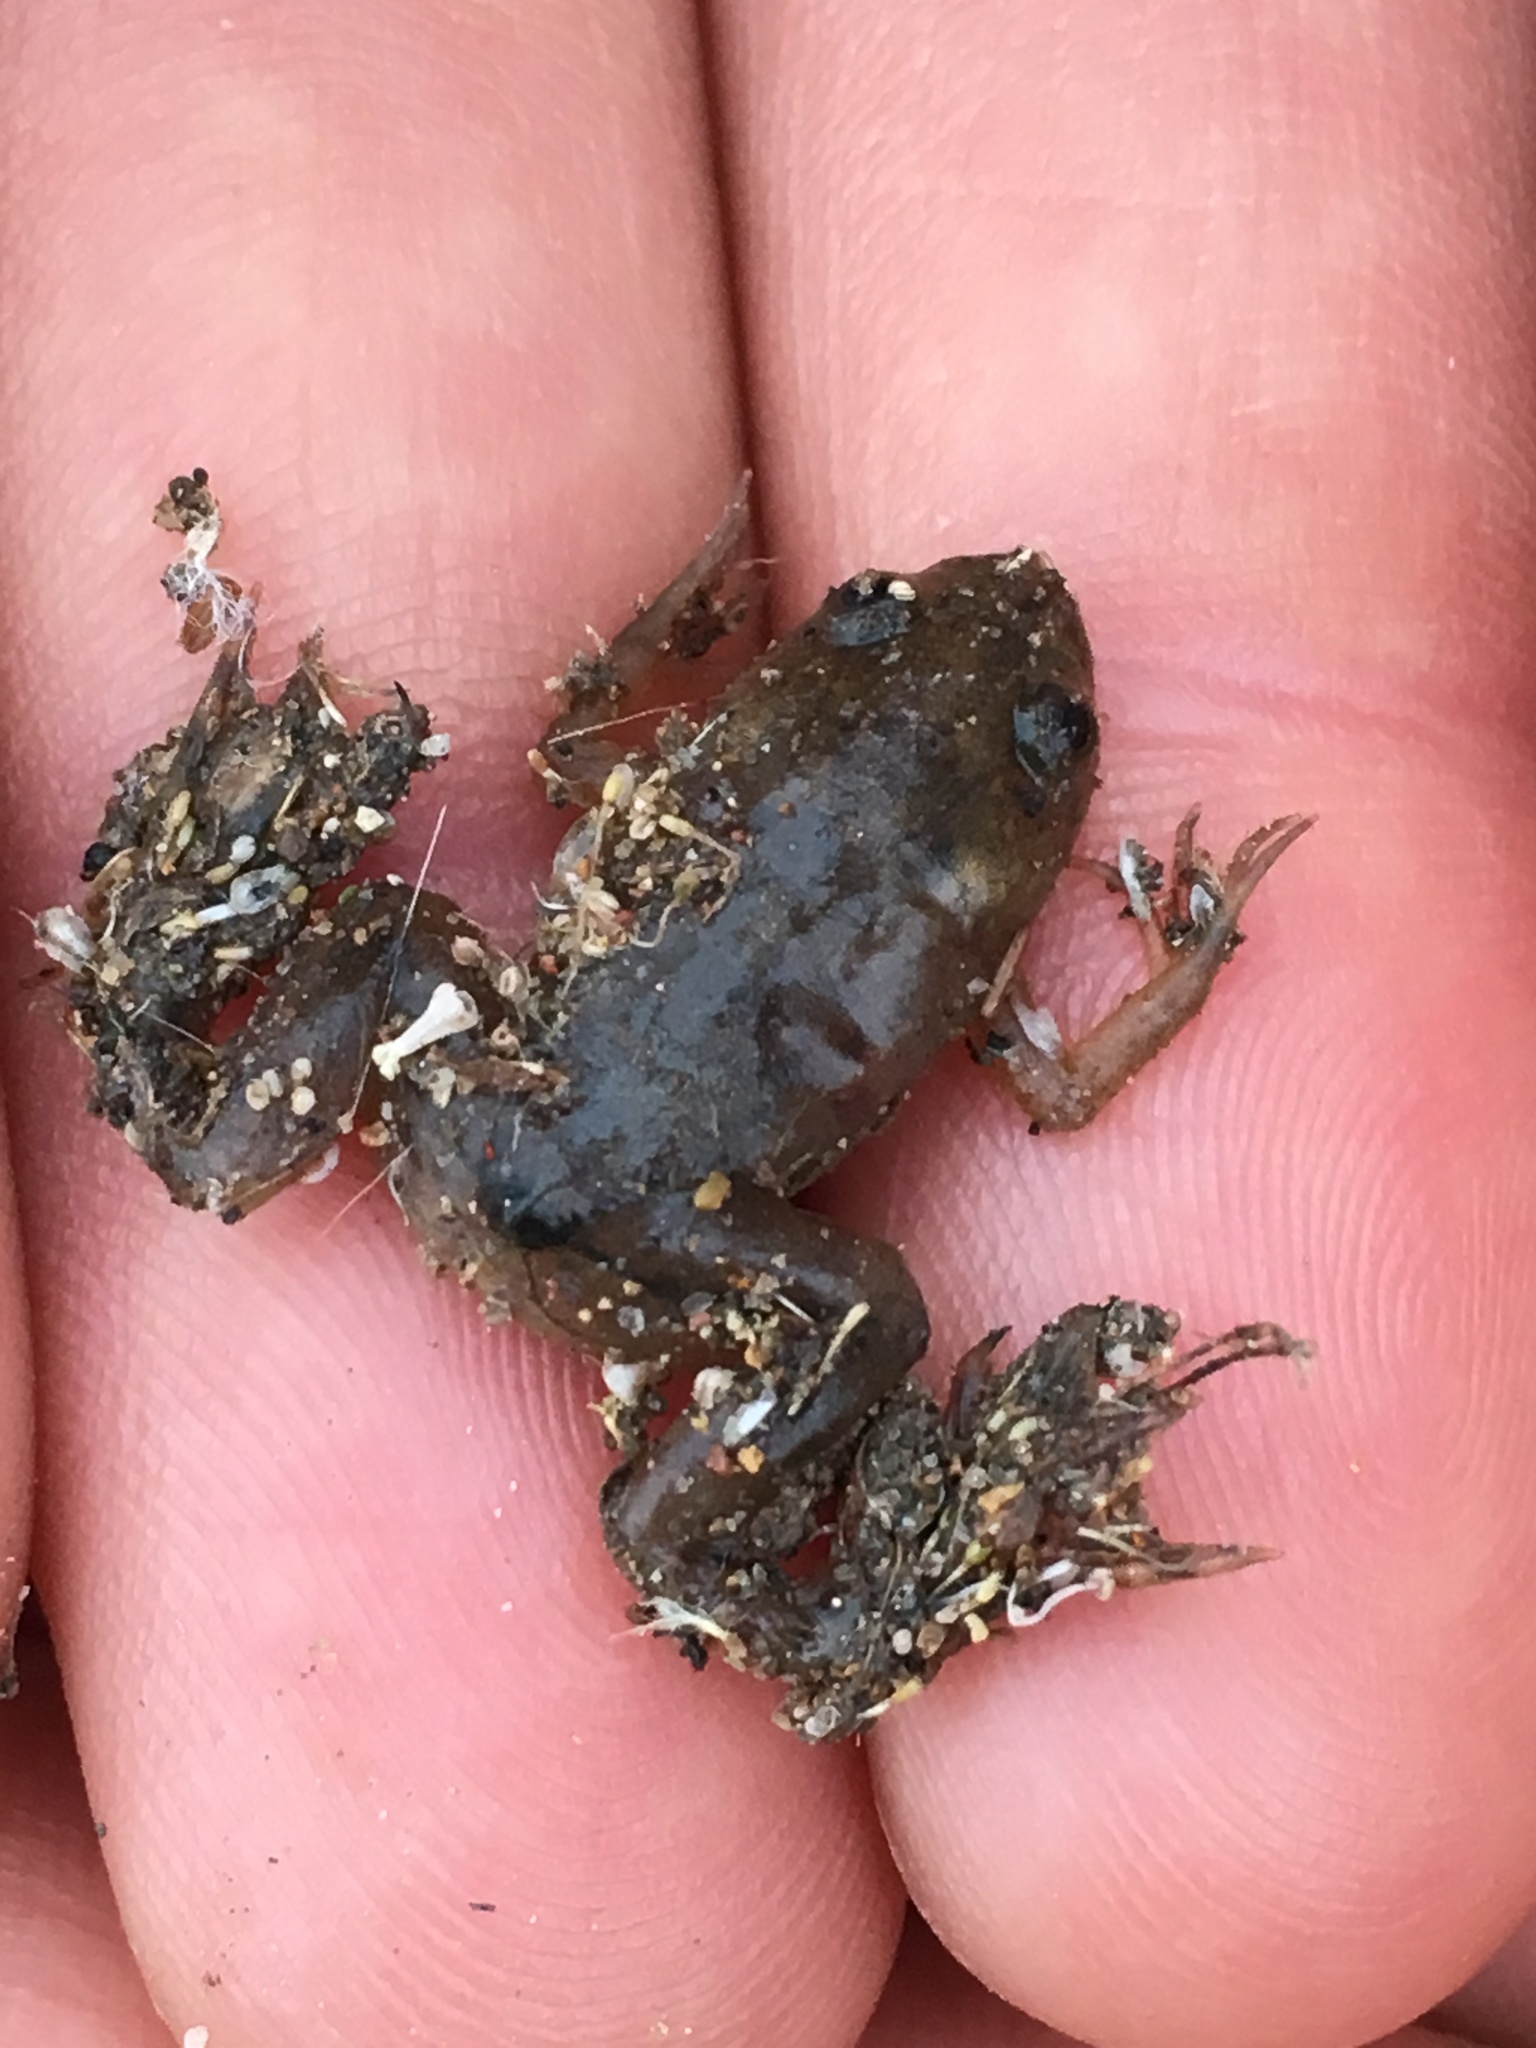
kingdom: Animalia
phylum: Chordata
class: Amphibia
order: Anura
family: Pipidae
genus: Xenopus
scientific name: Xenopus laevis
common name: African clawed frog
